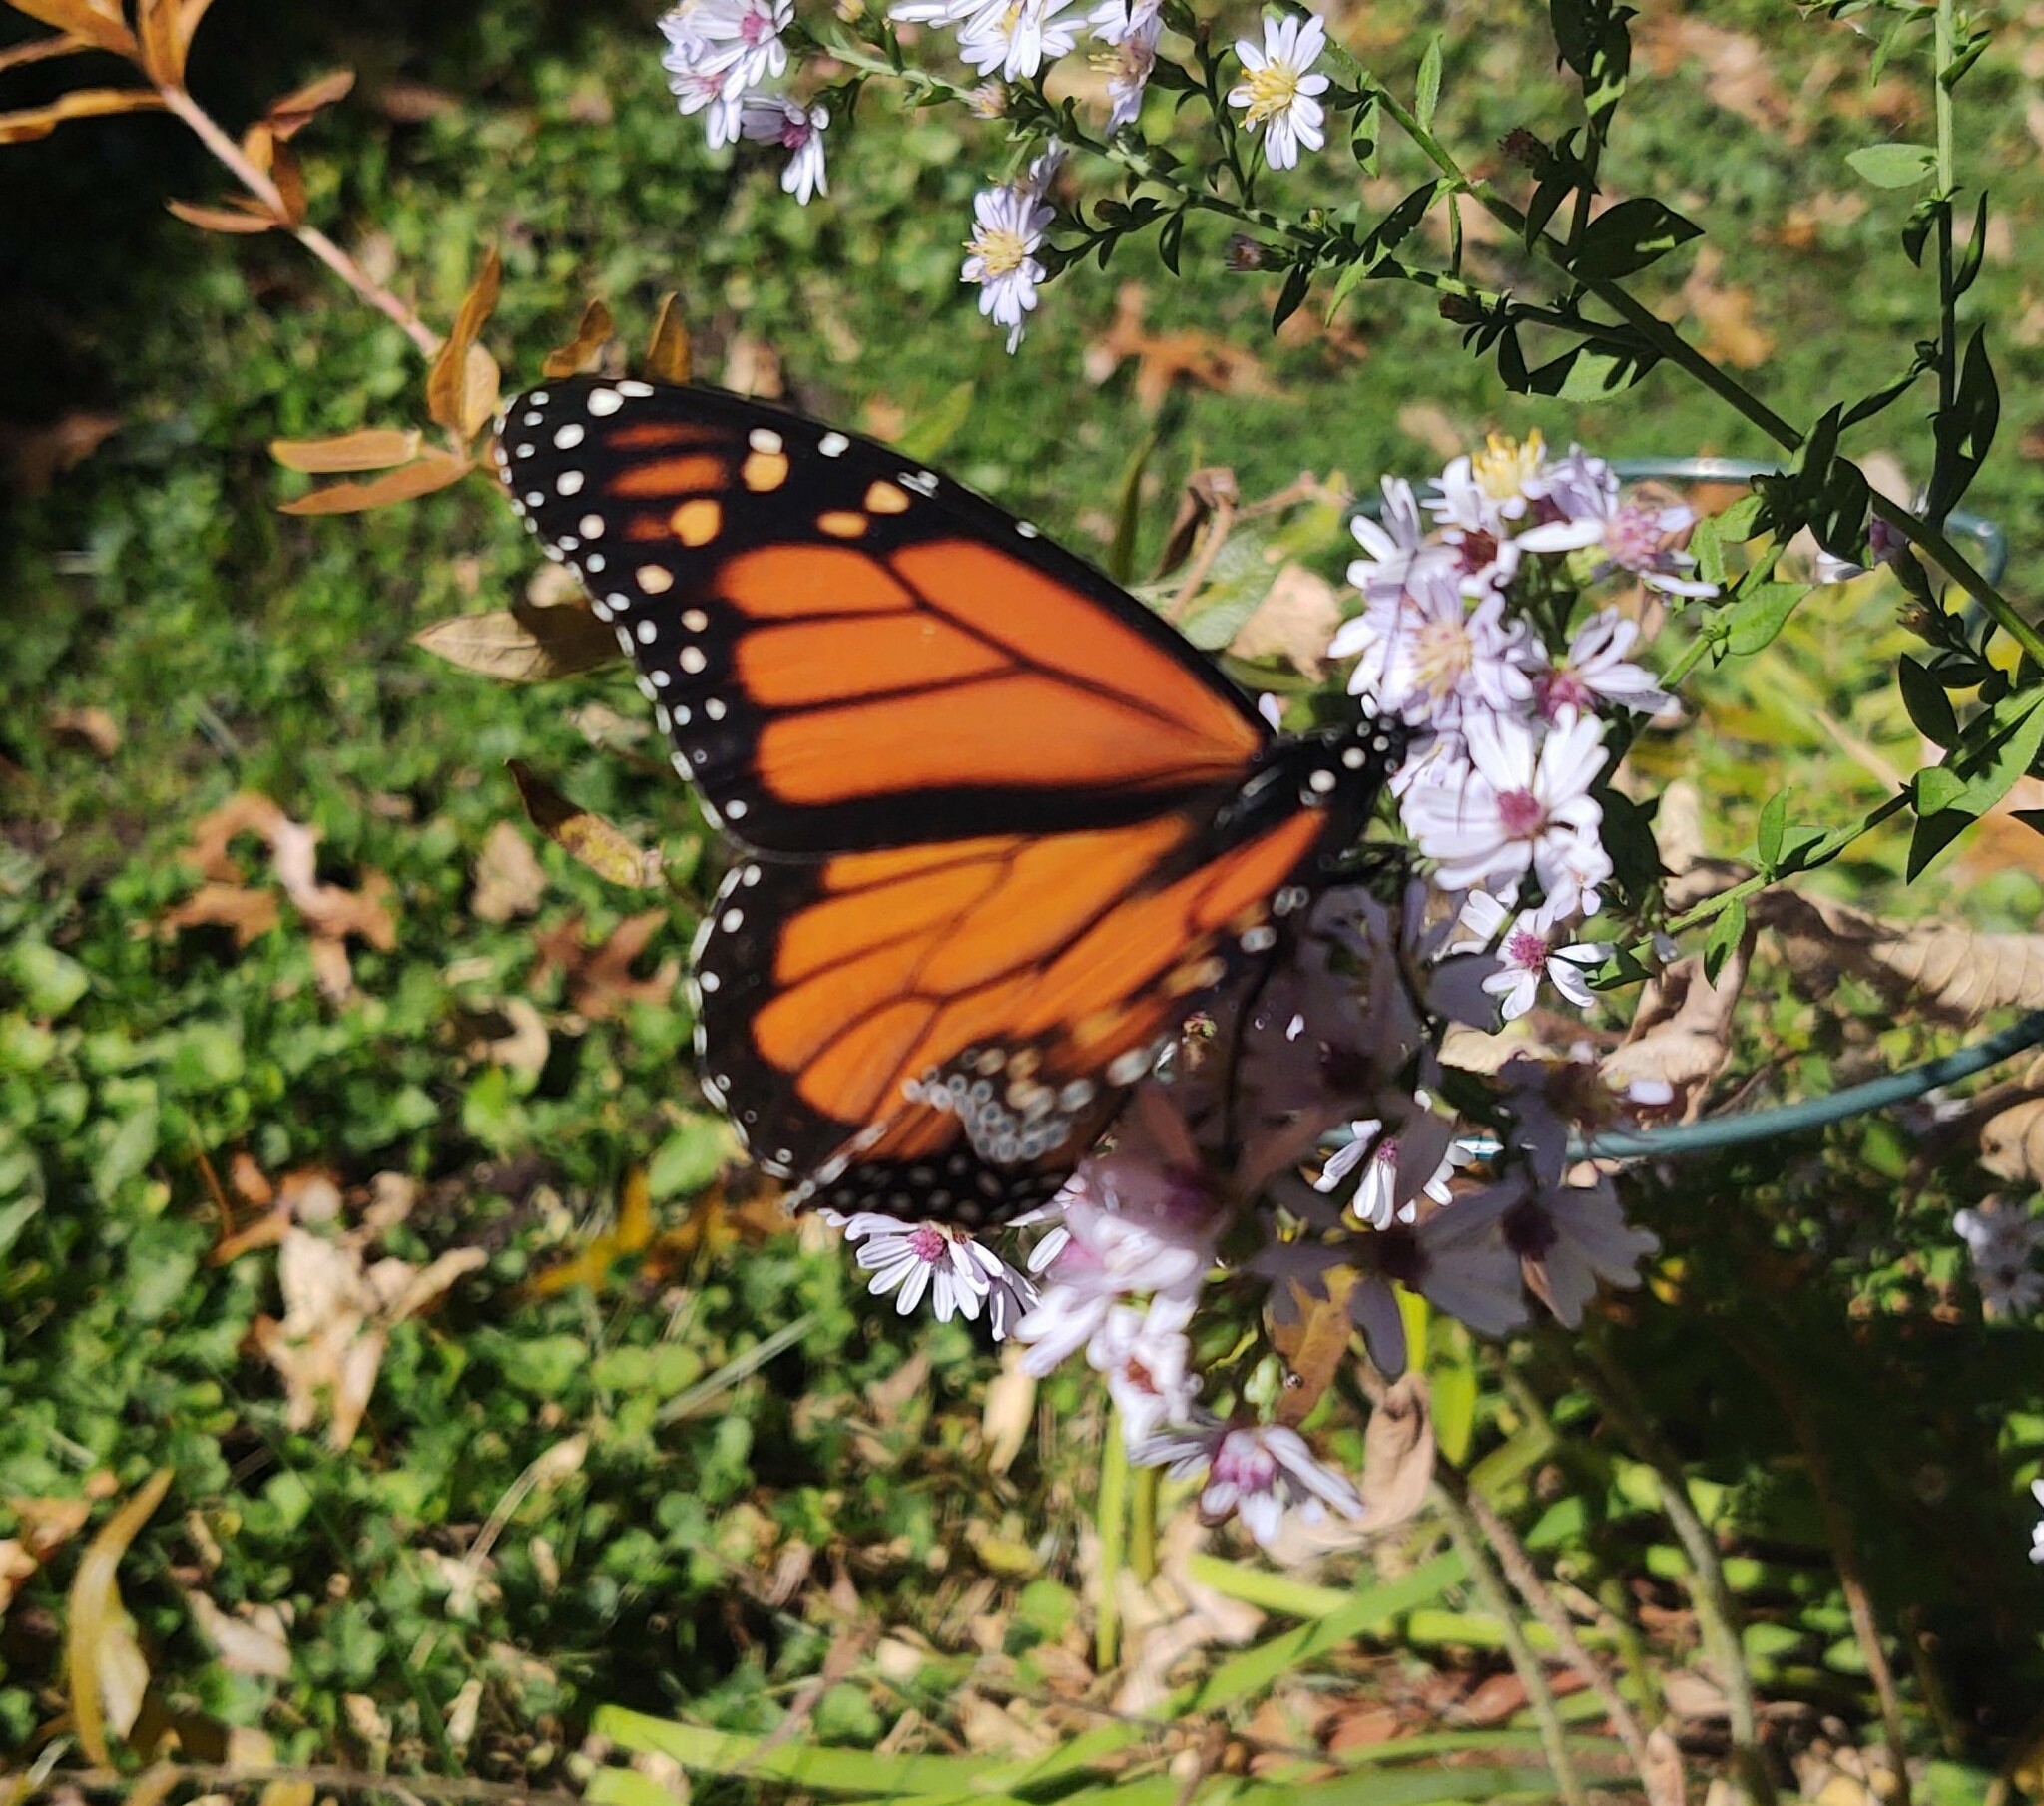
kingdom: Animalia
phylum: Arthropoda
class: Insecta
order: Lepidoptera
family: Nymphalidae
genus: Danaus
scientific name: Danaus plexippus
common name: Monarch
